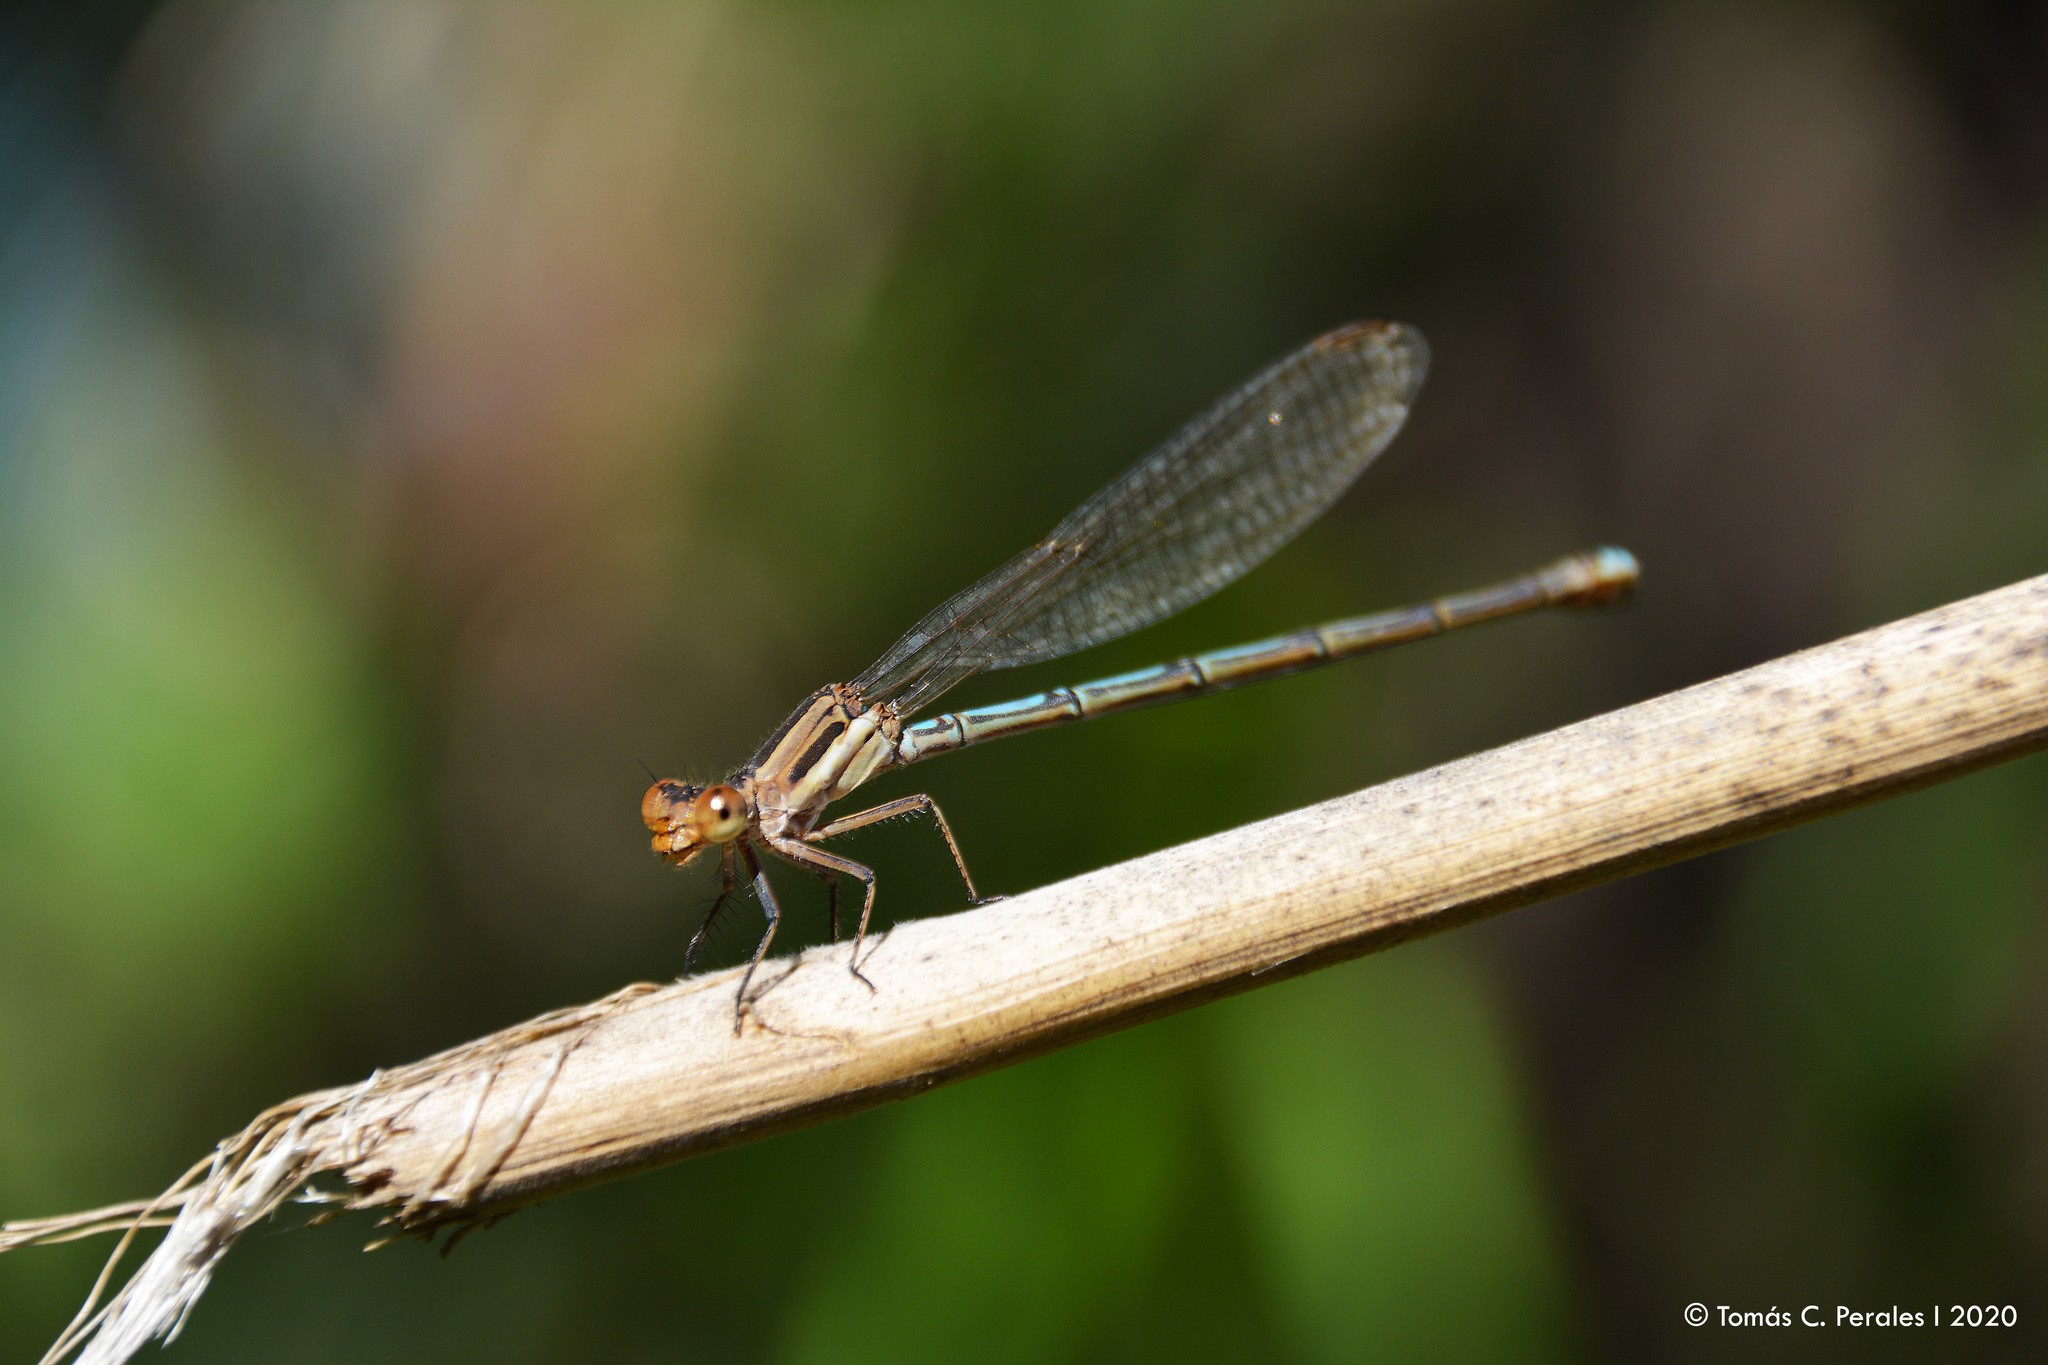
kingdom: Animalia
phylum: Arthropoda
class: Insecta
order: Odonata
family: Coenagrionidae
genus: Argia
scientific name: Argia joergenseni
